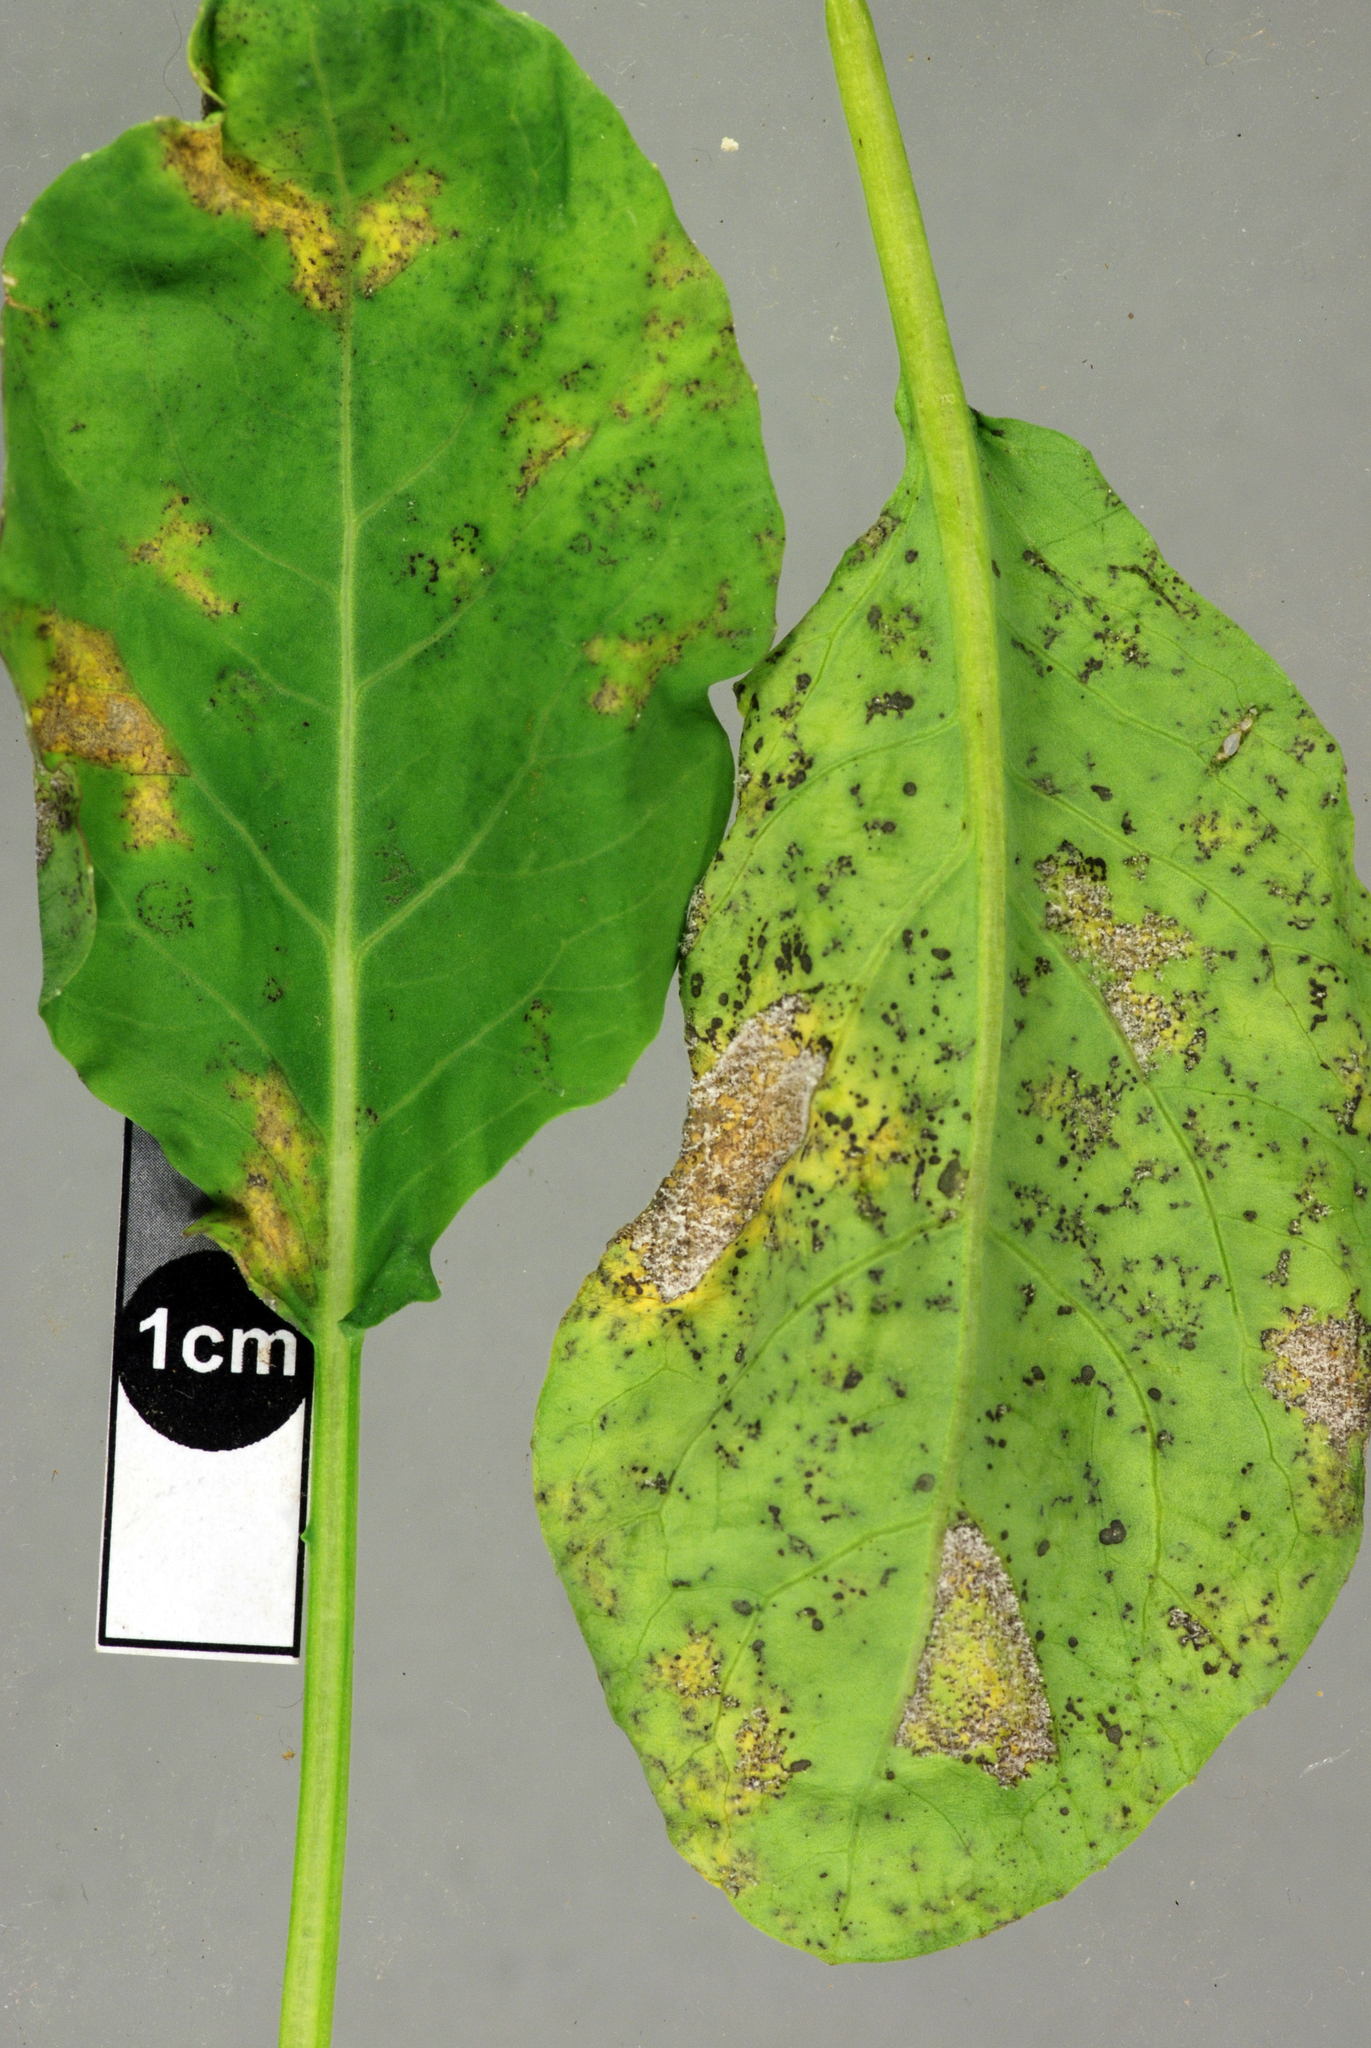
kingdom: Chromista
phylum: Oomycota
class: Peronosporea
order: Peronosporales
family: Peronosporaceae
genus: Hyaloperonospora
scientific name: Hyaloperonospora brassicae
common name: Brassica downy mildew
